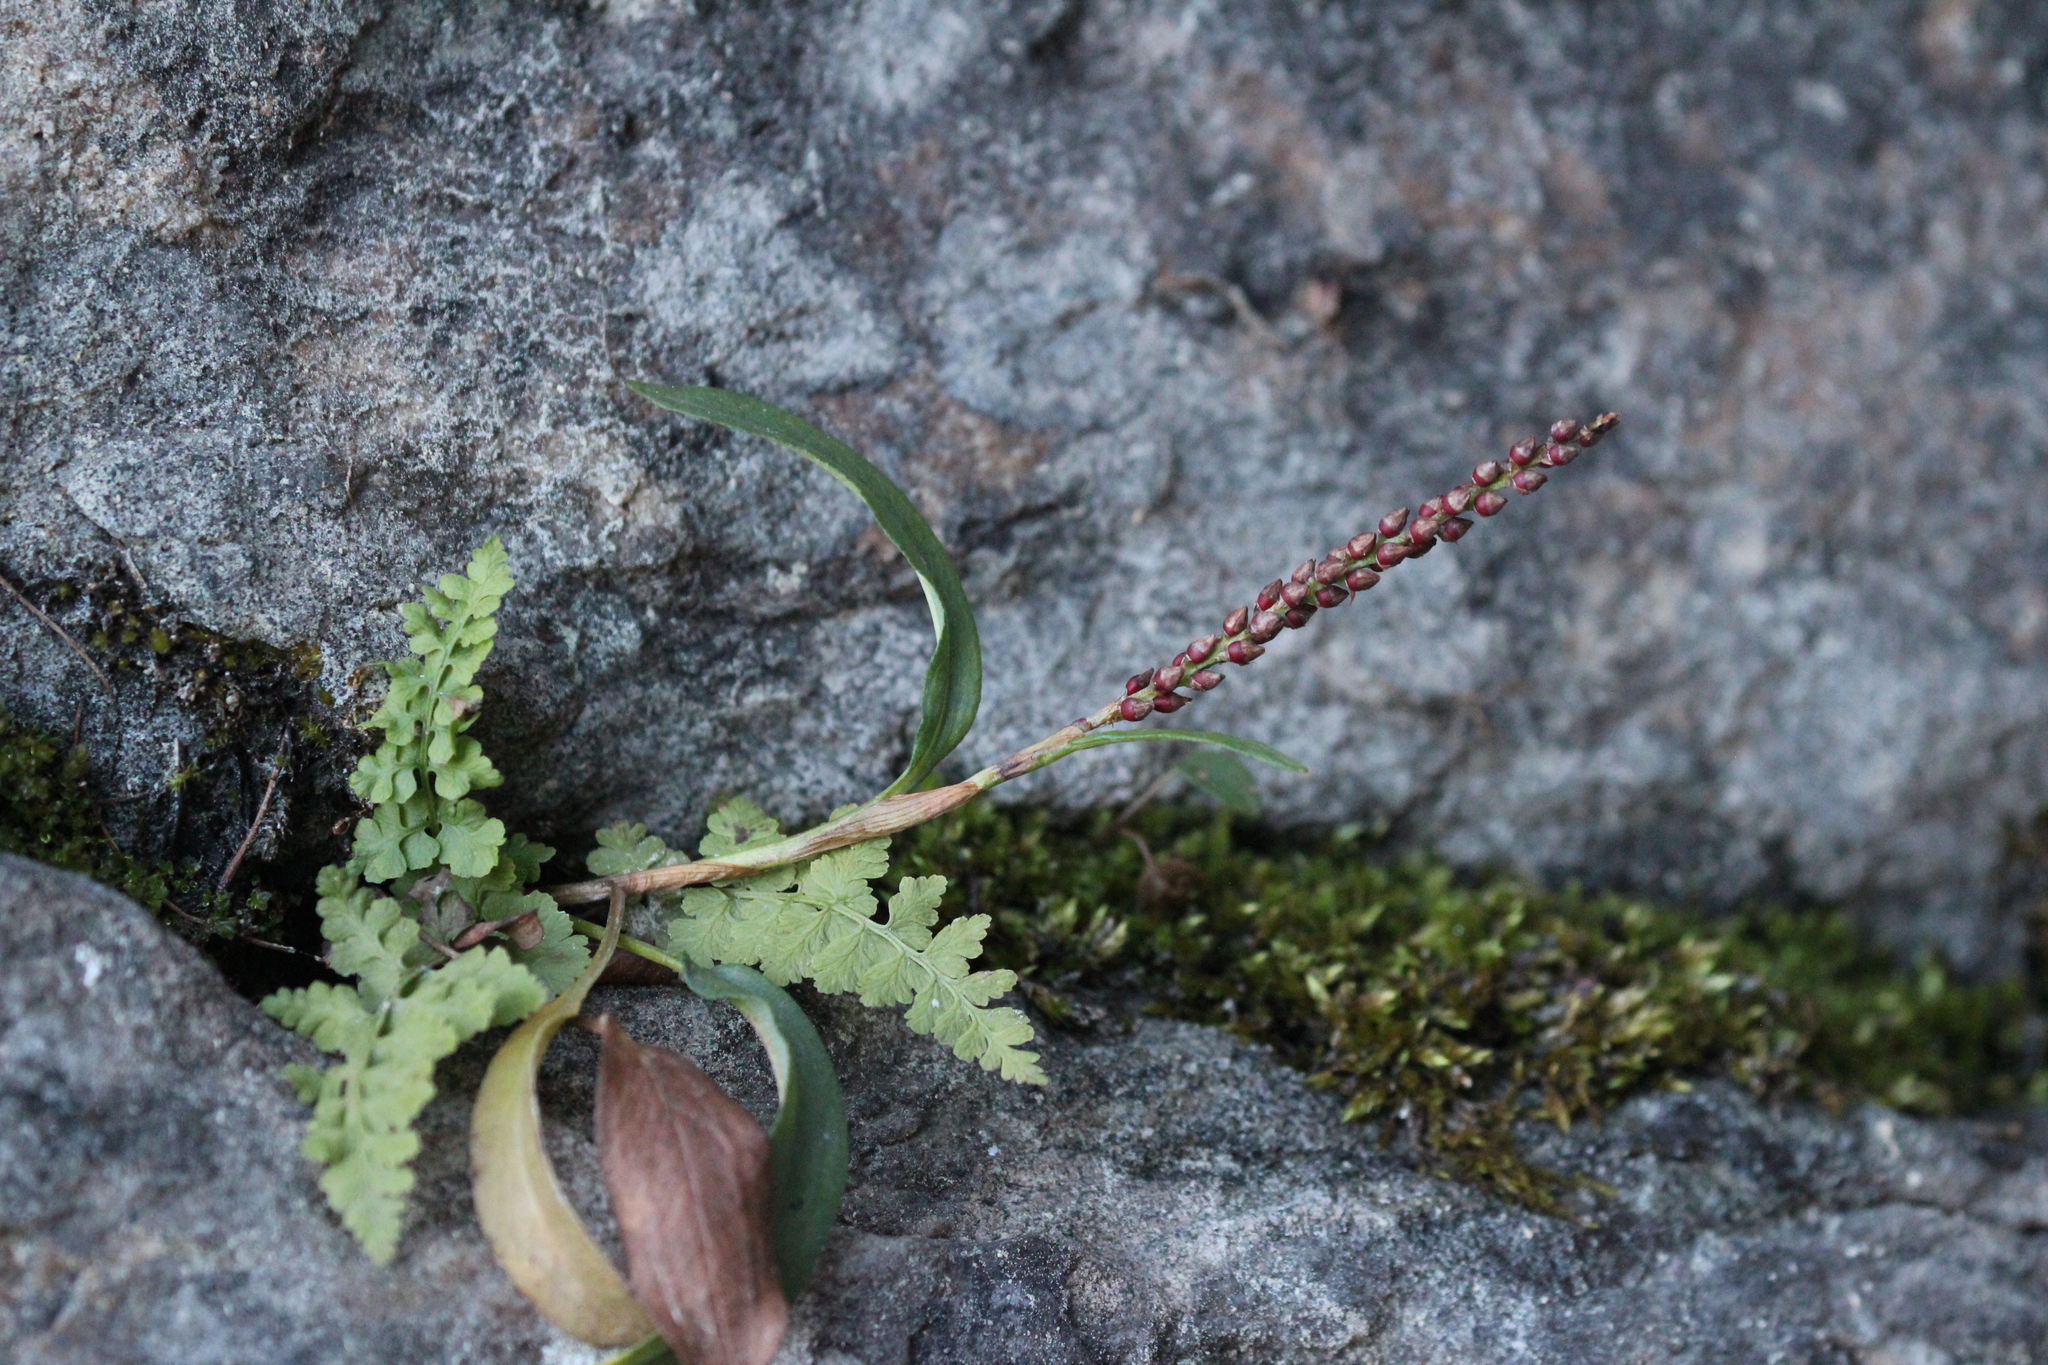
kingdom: Plantae
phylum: Tracheophyta
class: Magnoliopsida
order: Caryophyllales
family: Polygonaceae
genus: Bistorta
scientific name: Bistorta vivipara
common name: Alpine bistort
